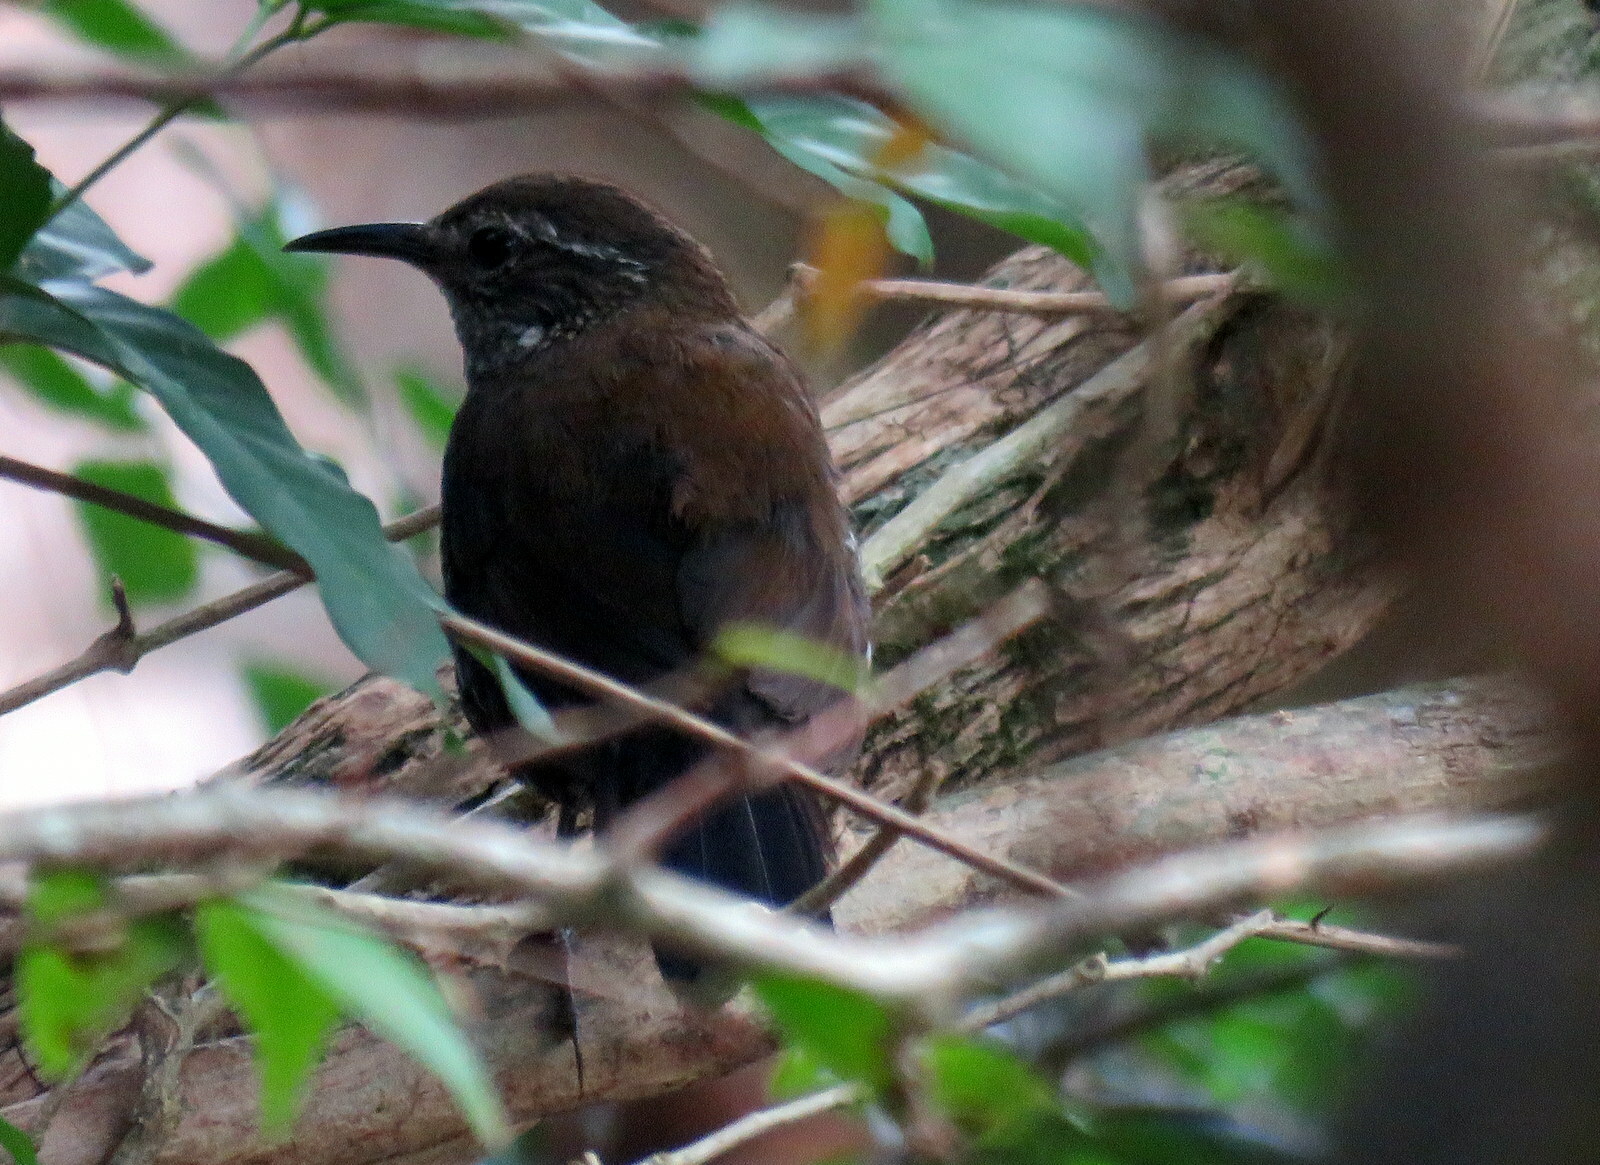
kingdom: Animalia
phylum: Chordata
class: Aves
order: Passeriformes
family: Furnariidae
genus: Lochmias
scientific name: Lochmias nematura
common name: Sharp-tailed streamcreeper
